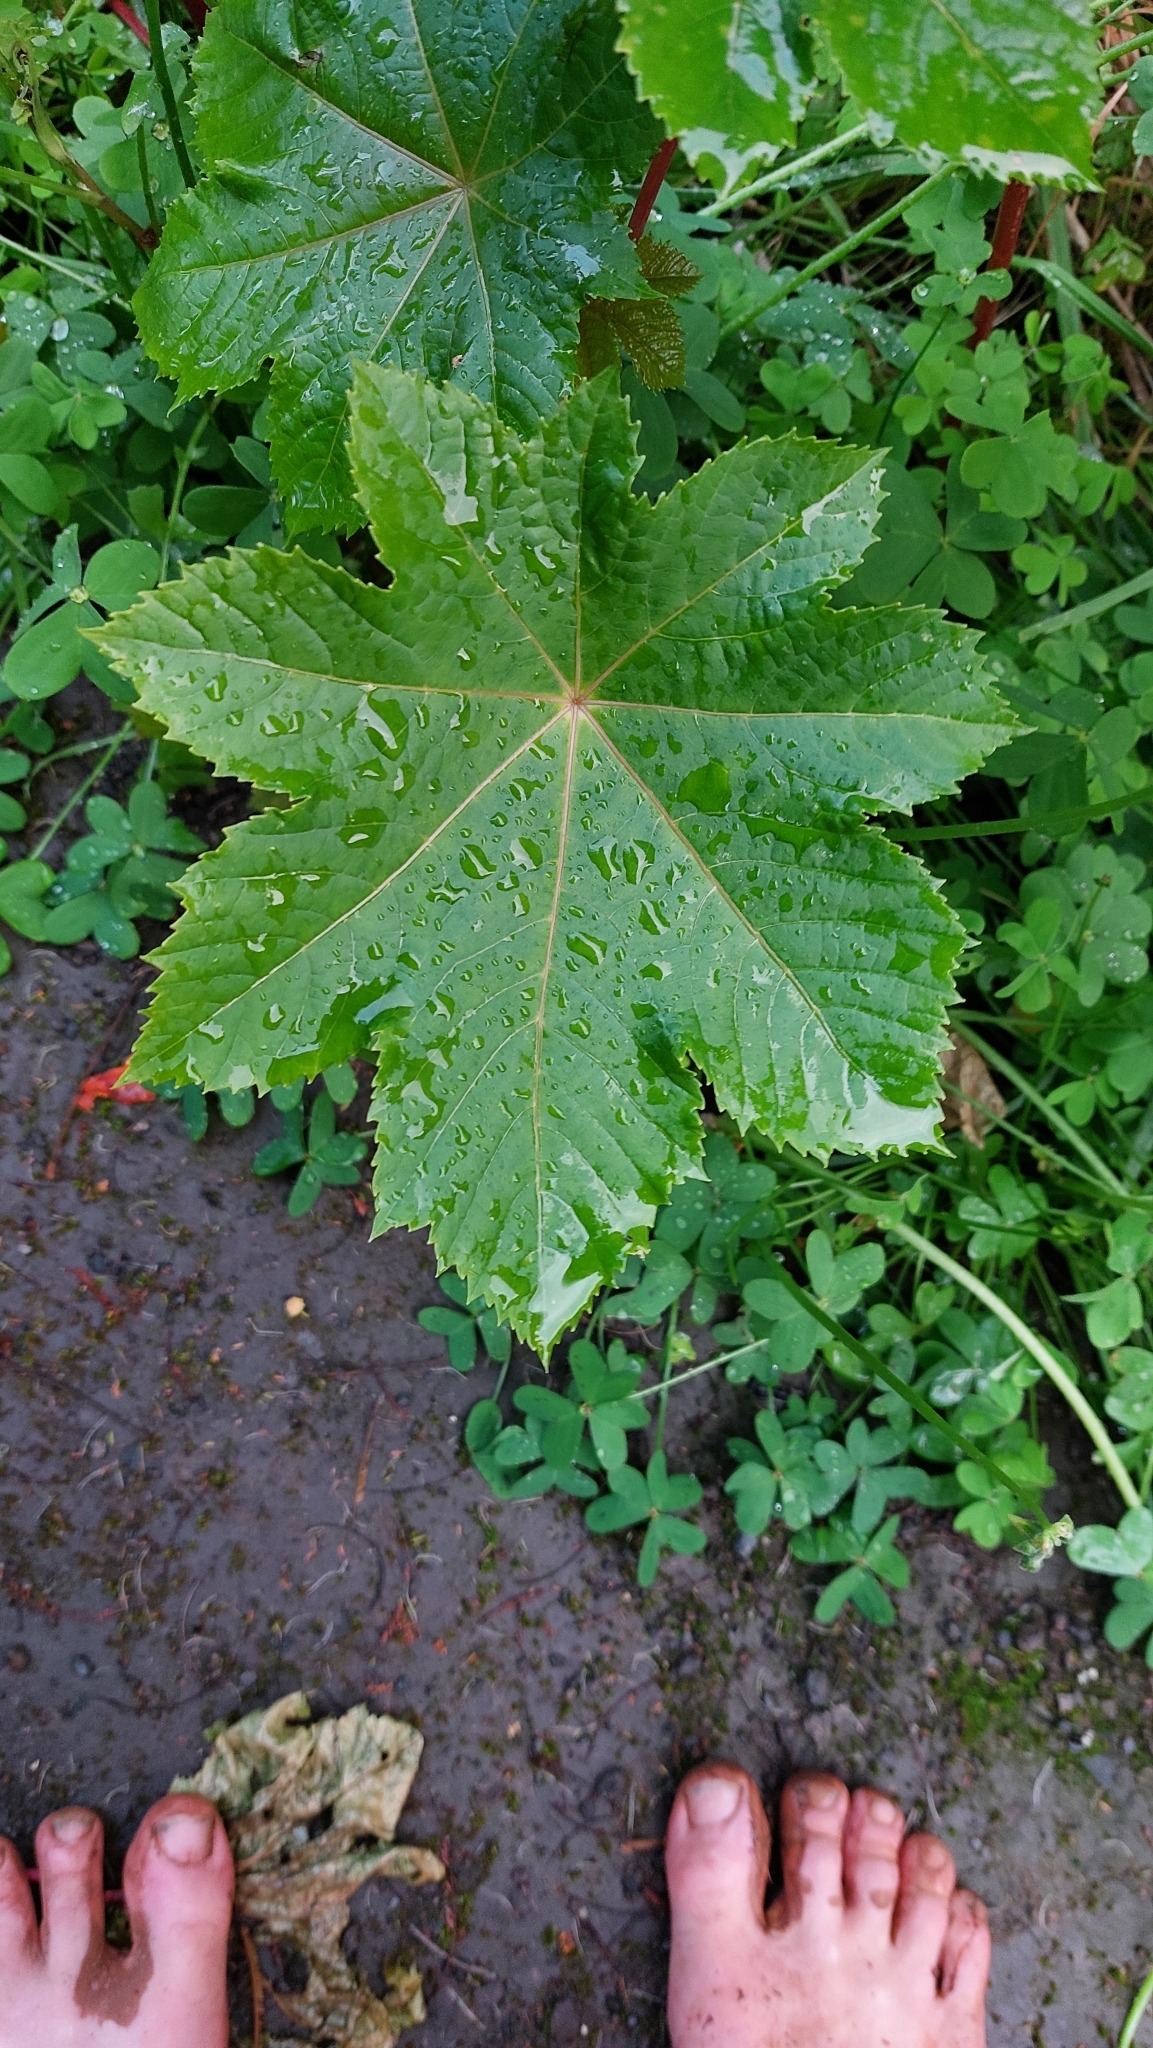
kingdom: Plantae
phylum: Tracheophyta
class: Magnoliopsida
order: Malpighiales
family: Euphorbiaceae
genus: Ricinus
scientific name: Ricinus communis
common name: Castor-oil-plant
